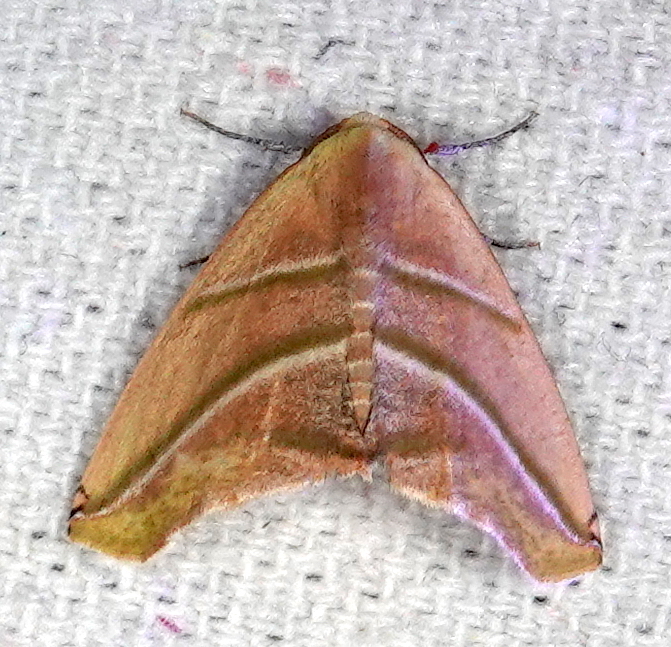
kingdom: Animalia
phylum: Arthropoda
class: Insecta
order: Lepidoptera
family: Geometridae
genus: Sicya
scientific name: Sicya directaria
